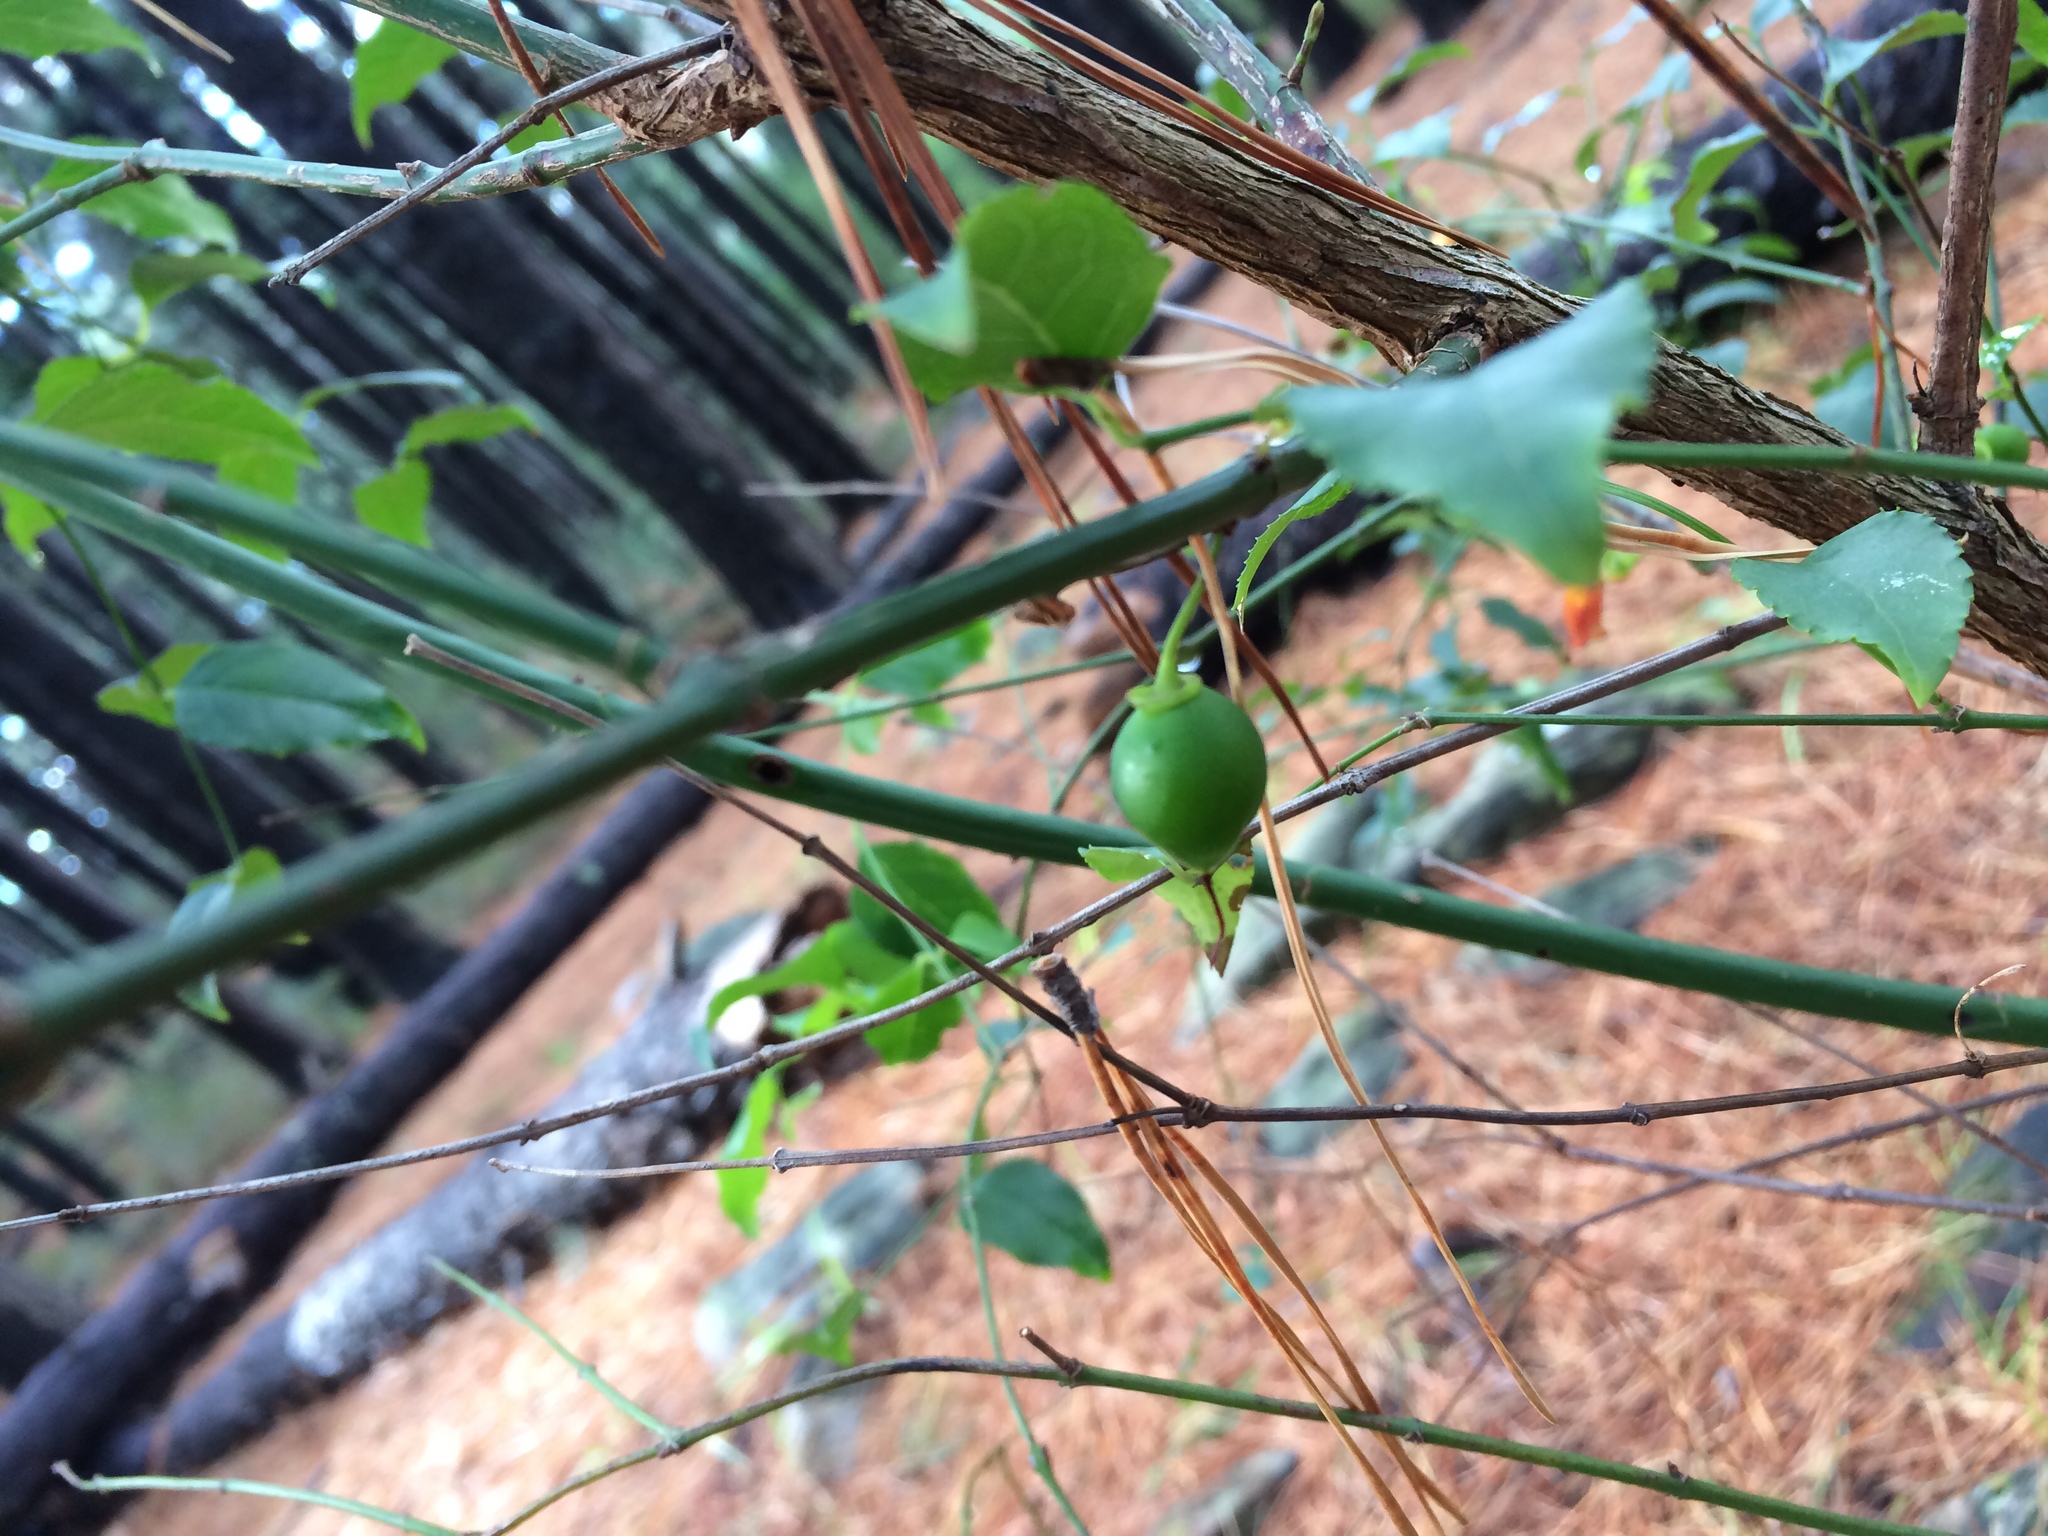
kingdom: Plantae
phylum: Tracheophyta
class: Magnoliopsida
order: Lamiales
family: Stilbaceae
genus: Halleria
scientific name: Halleria lucida
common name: Tree fuschia
